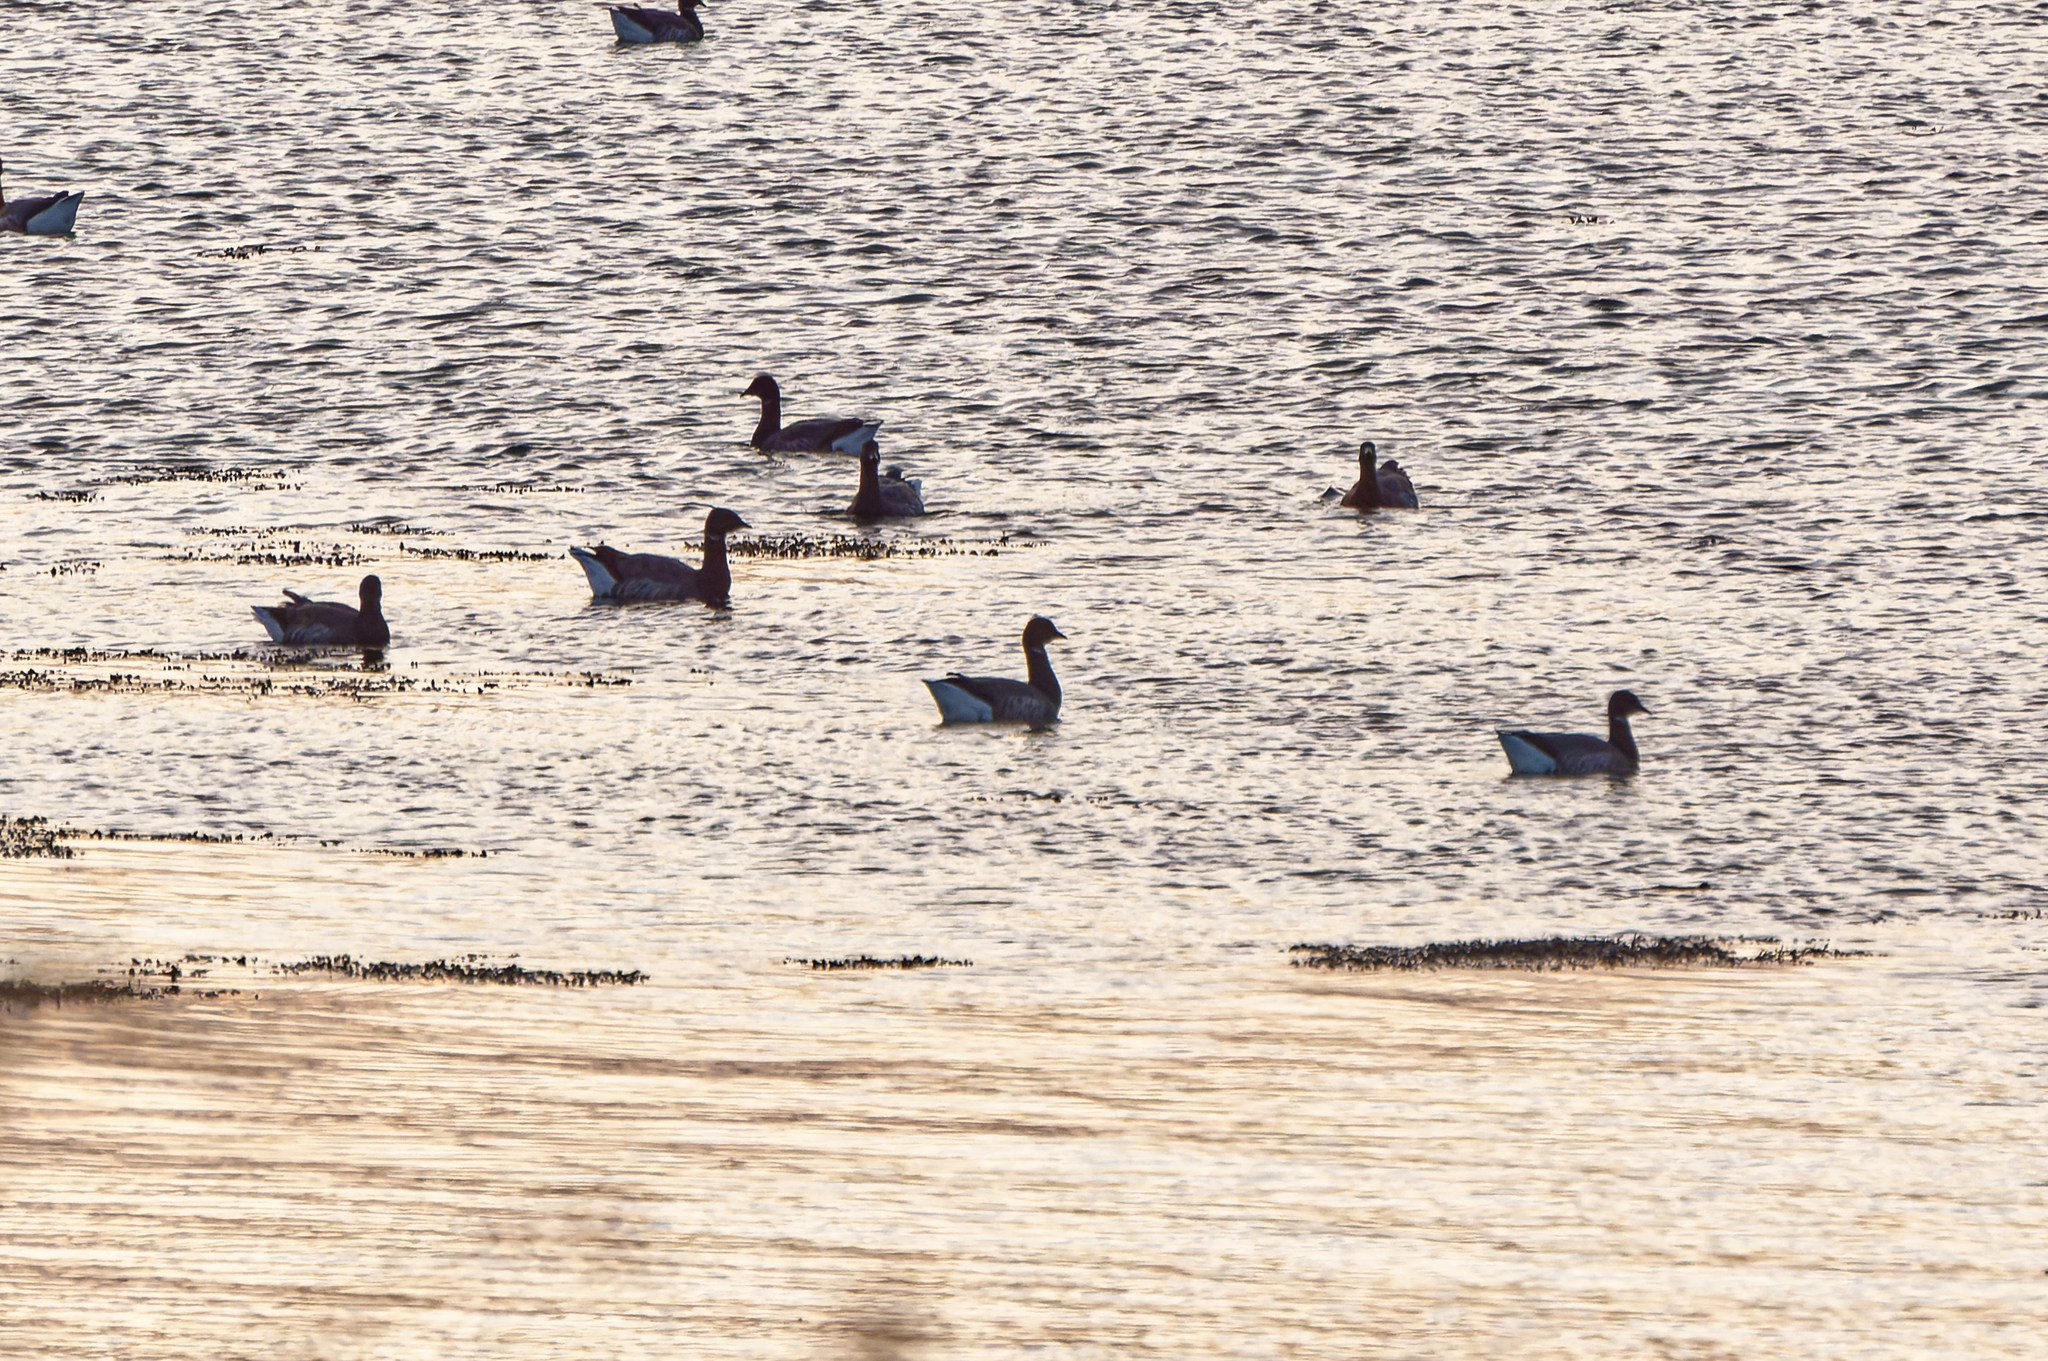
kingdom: Animalia
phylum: Chordata
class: Aves
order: Anseriformes
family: Anatidae
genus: Branta
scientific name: Branta bernicla
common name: Brant goose
